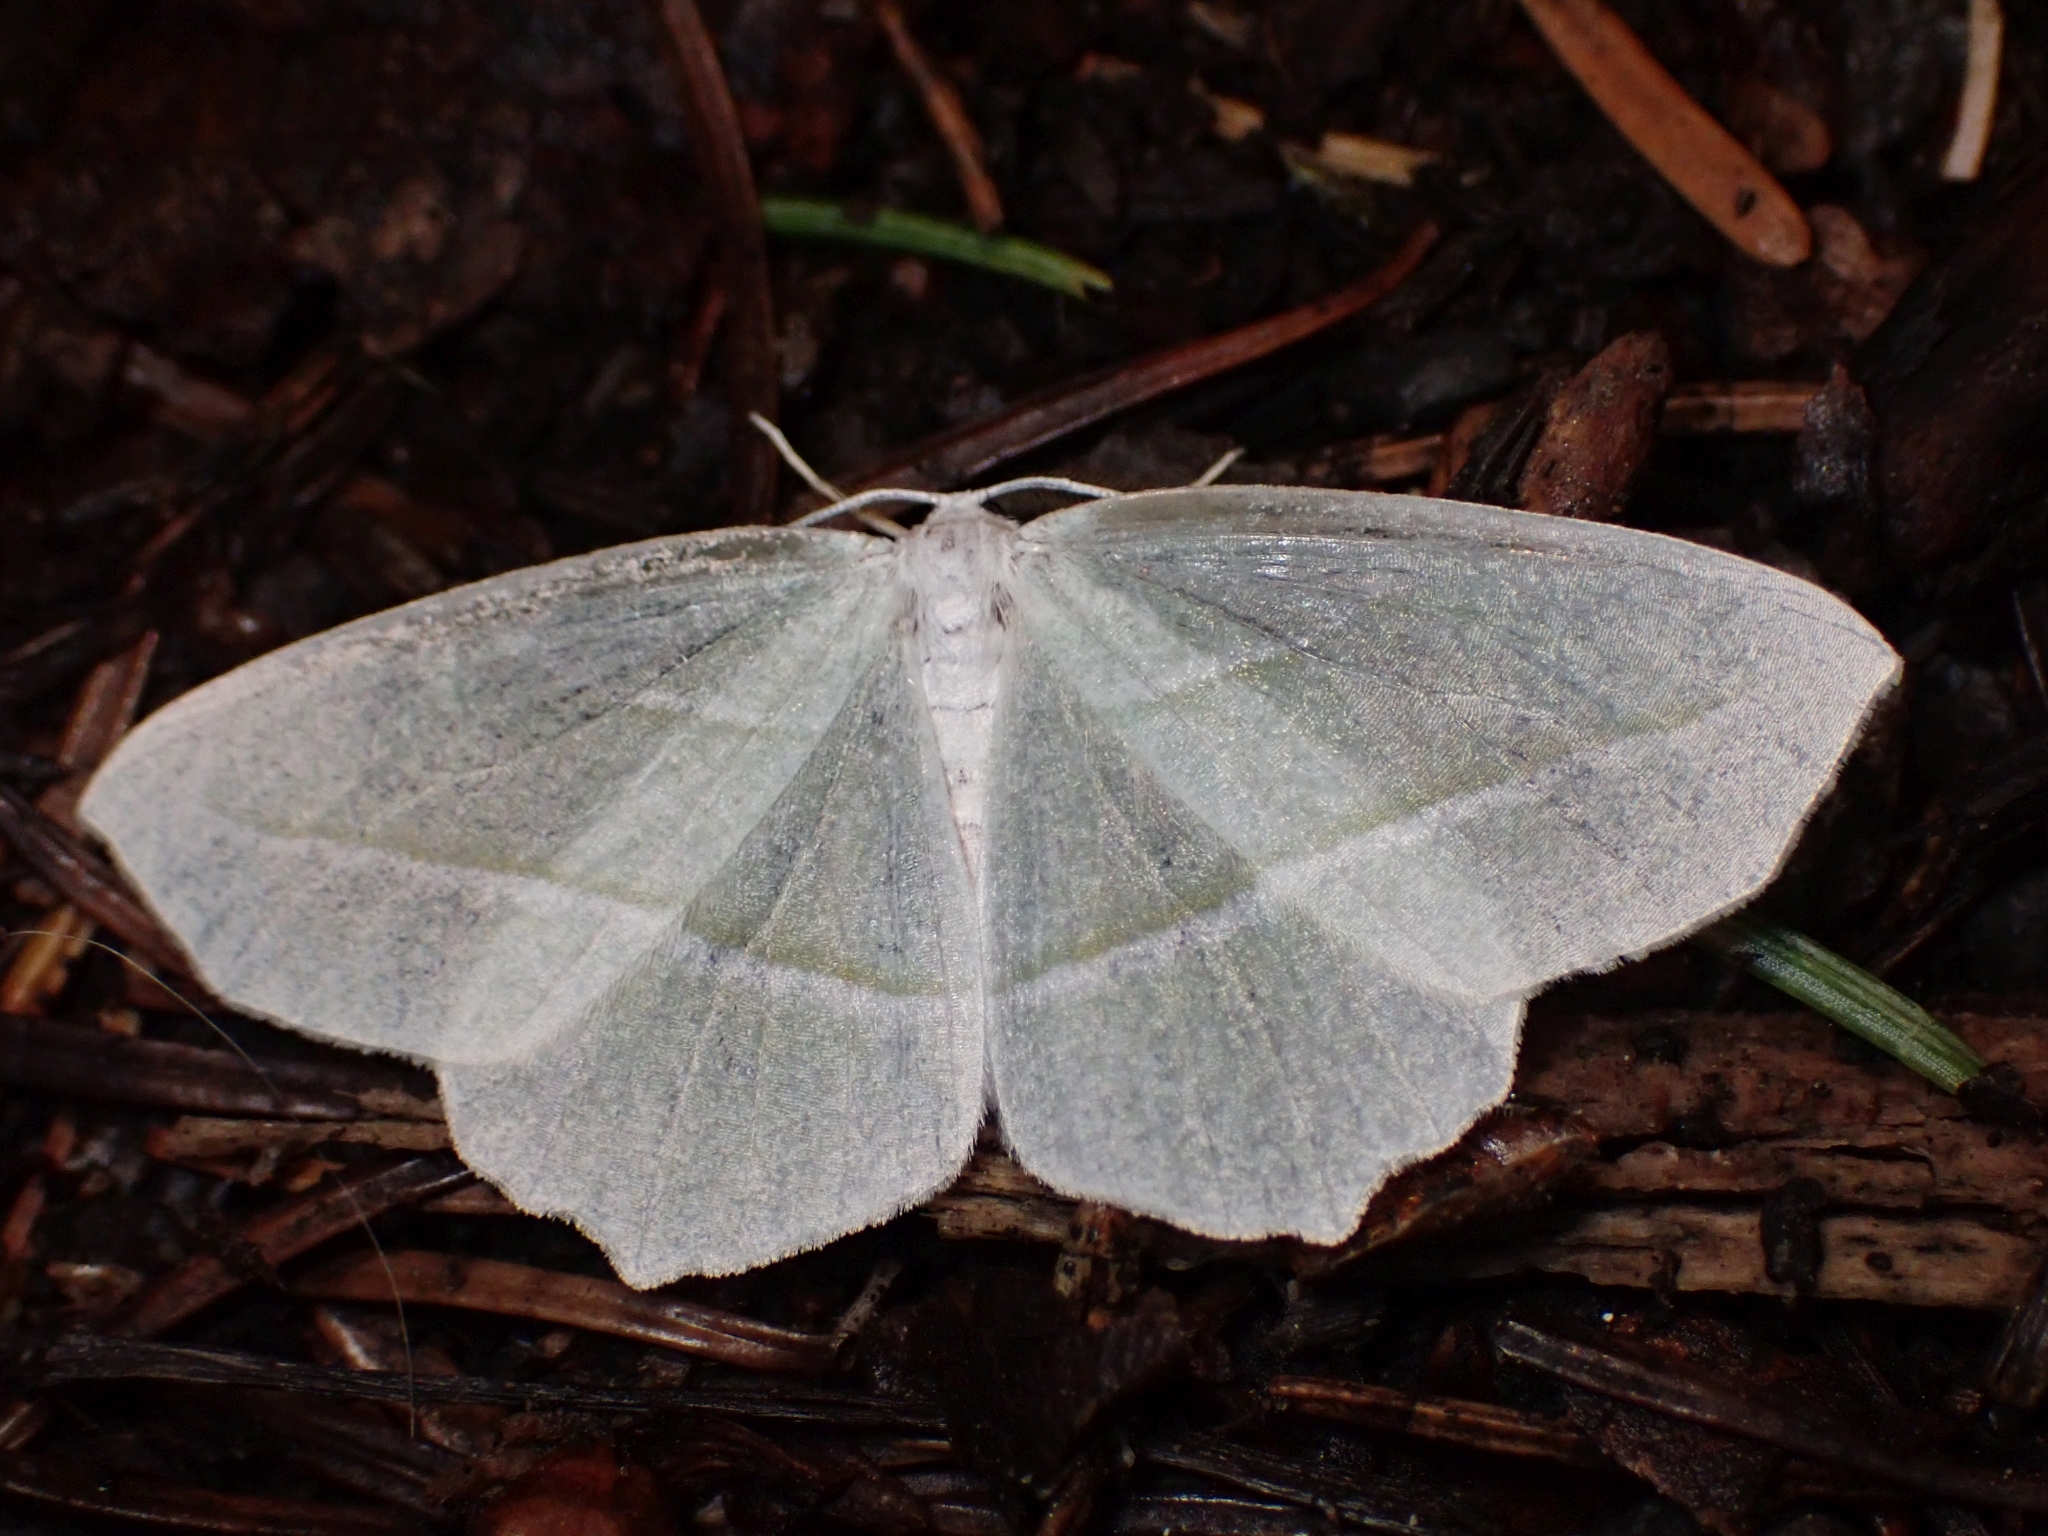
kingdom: Animalia
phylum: Arthropoda
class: Insecta
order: Lepidoptera
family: Geometridae
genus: Campaea
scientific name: Campaea perlata
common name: Fringed looper
